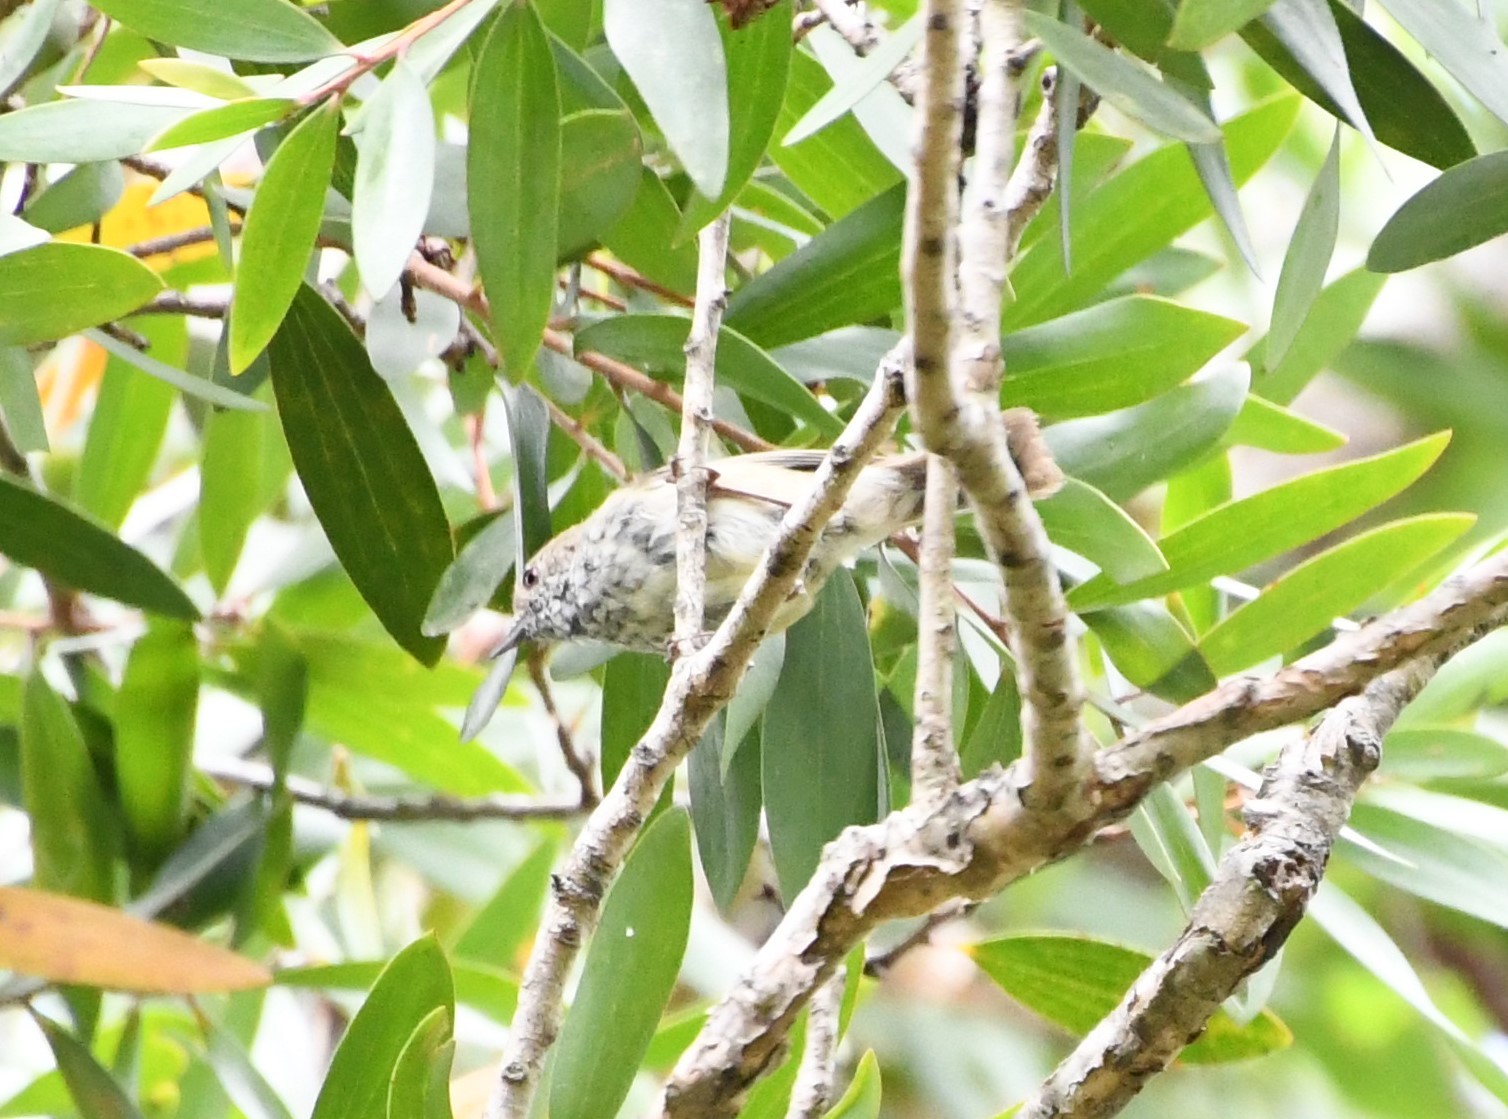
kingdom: Animalia
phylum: Chordata
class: Aves
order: Passeriformes
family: Acanthizidae
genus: Acanthiza
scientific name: Acanthiza pusilla
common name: Brown thornbill
